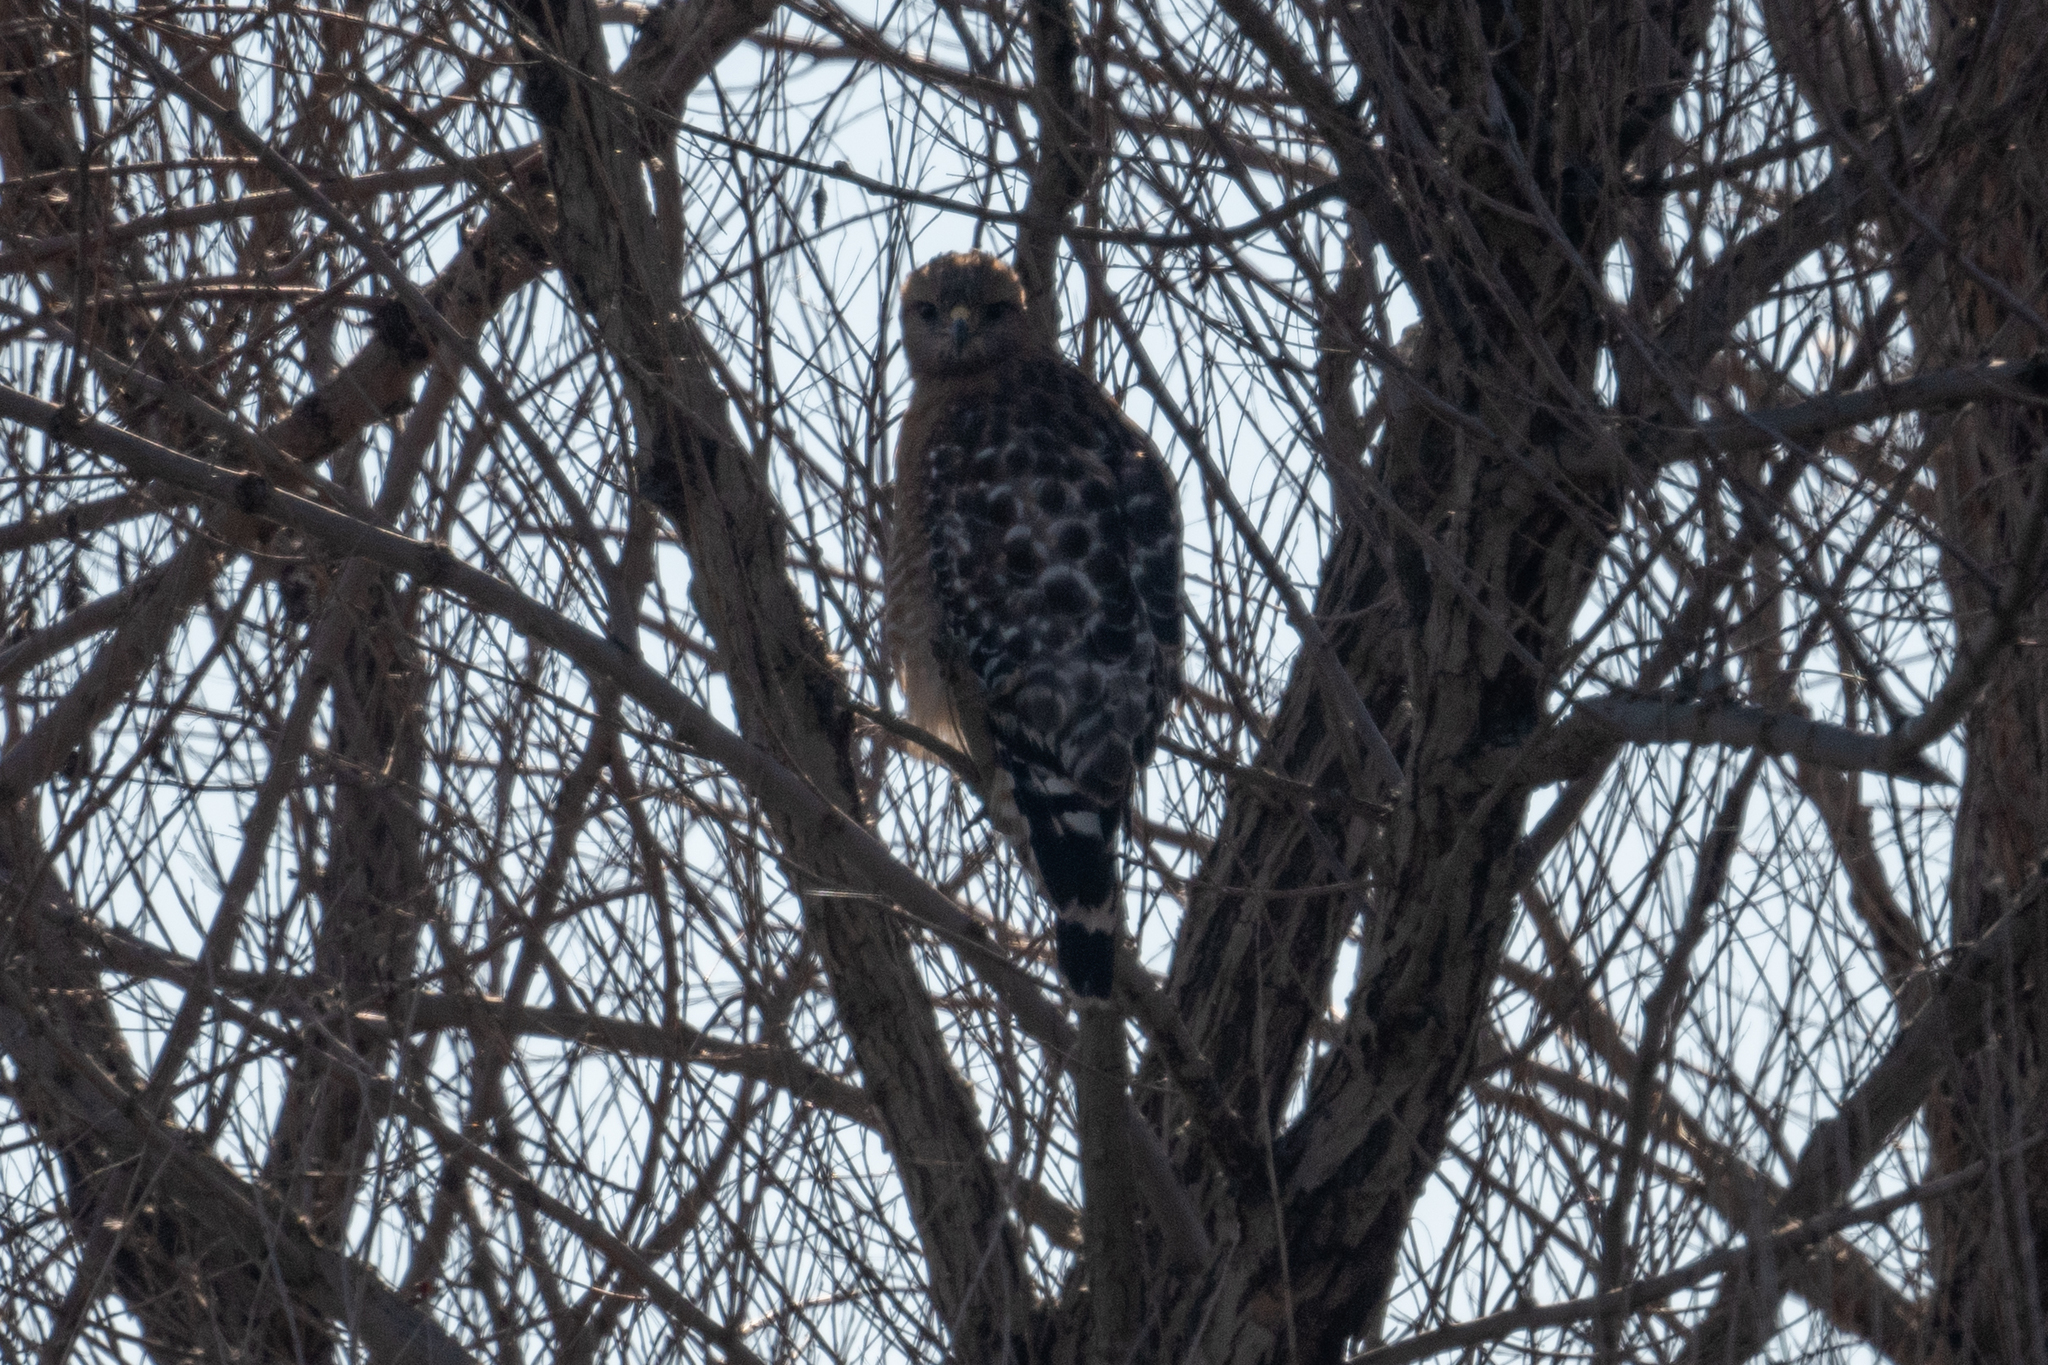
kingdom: Animalia
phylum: Chordata
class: Aves
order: Accipitriformes
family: Accipitridae
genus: Buteo
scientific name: Buteo lineatus
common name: Red-shouldered hawk
